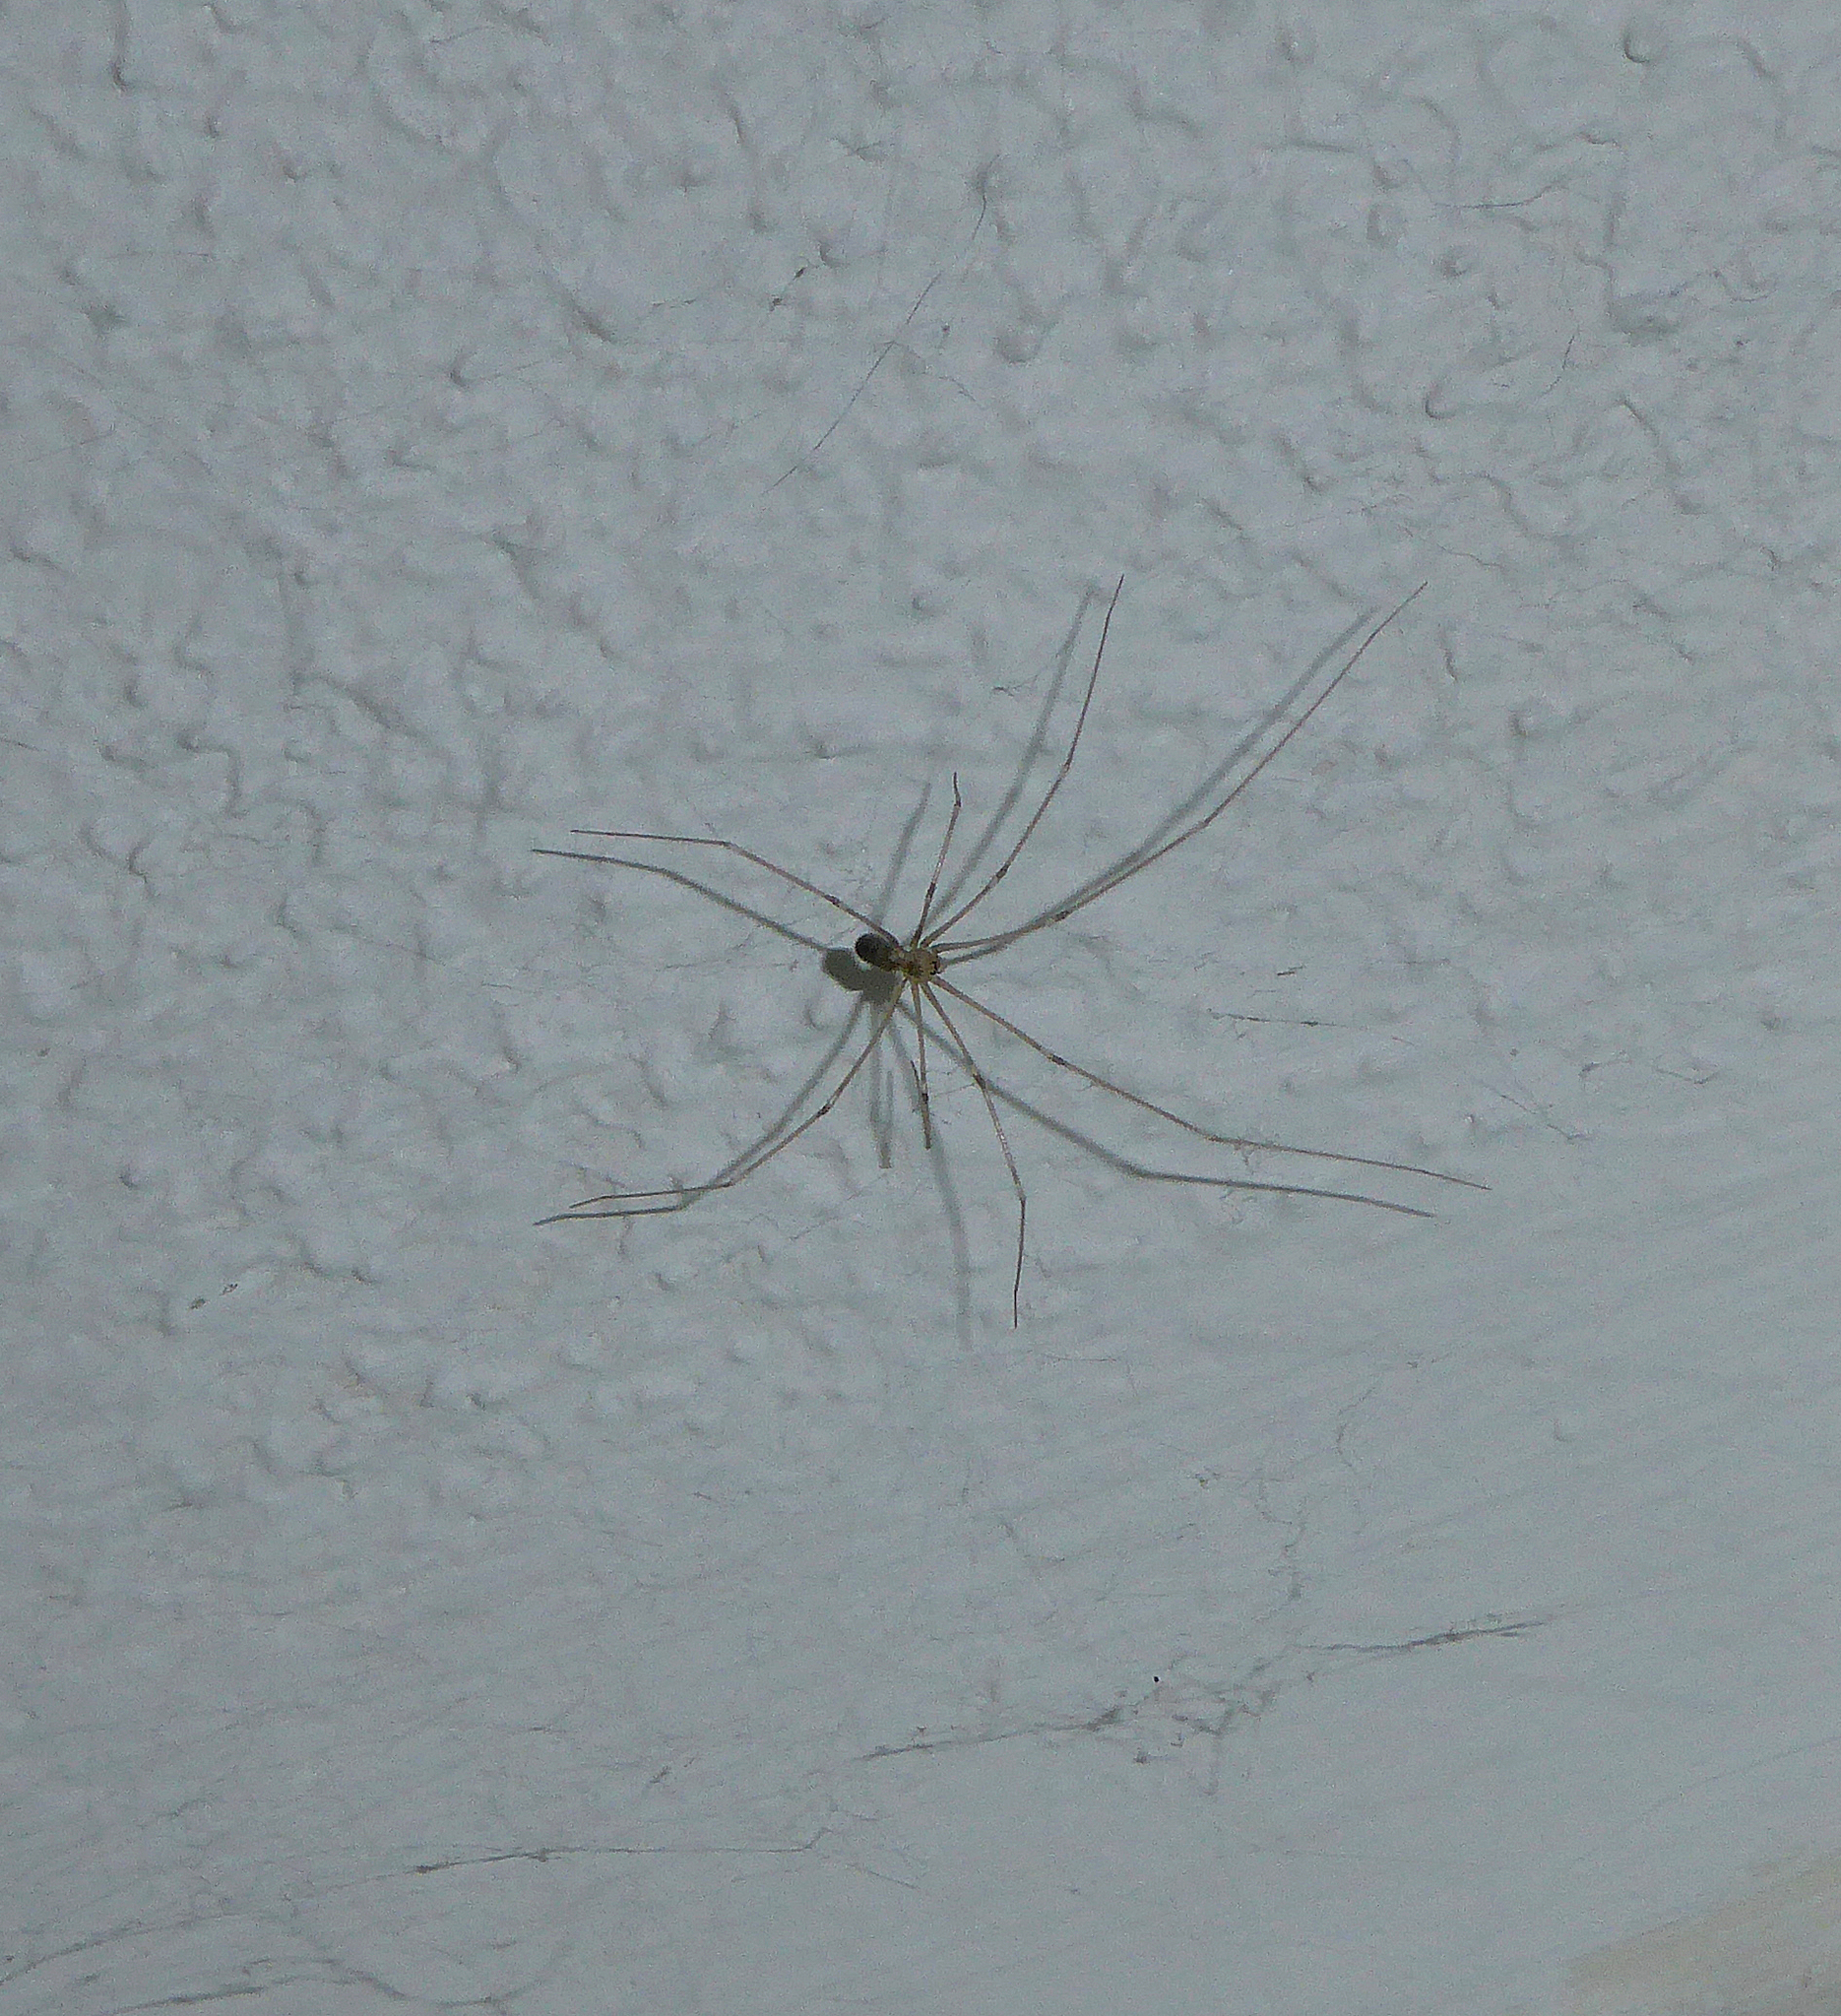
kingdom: Animalia
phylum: Arthropoda
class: Arachnida
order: Araneae
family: Pholcidae
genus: Pholcus
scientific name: Pholcus phalangioides
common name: Longbodied cellar spider
